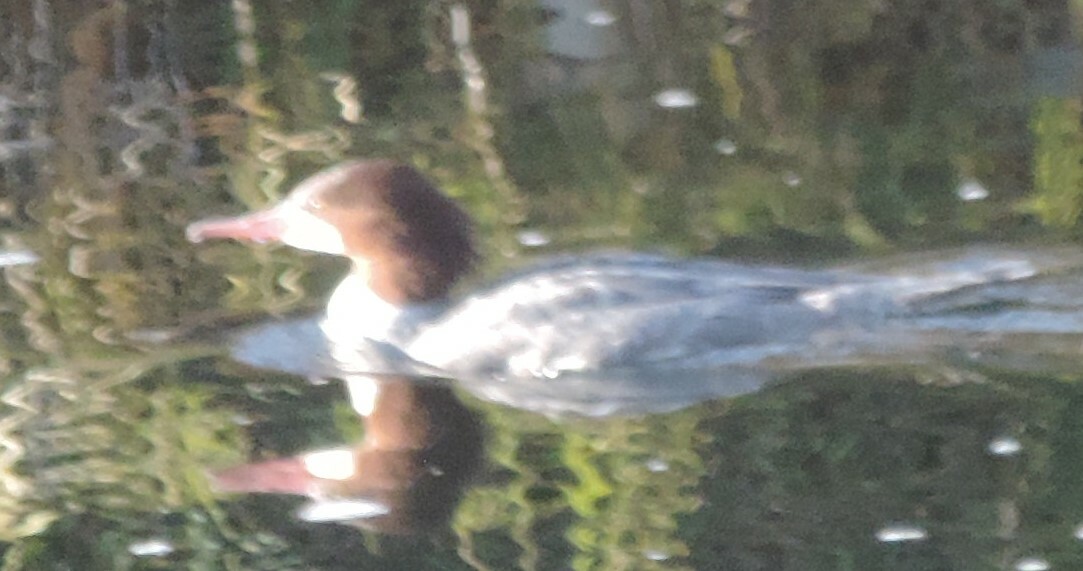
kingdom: Animalia
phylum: Chordata
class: Aves
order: Anseriformes
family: Anatidae
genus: Mergus
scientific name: Mergus merganser
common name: Common merganser
